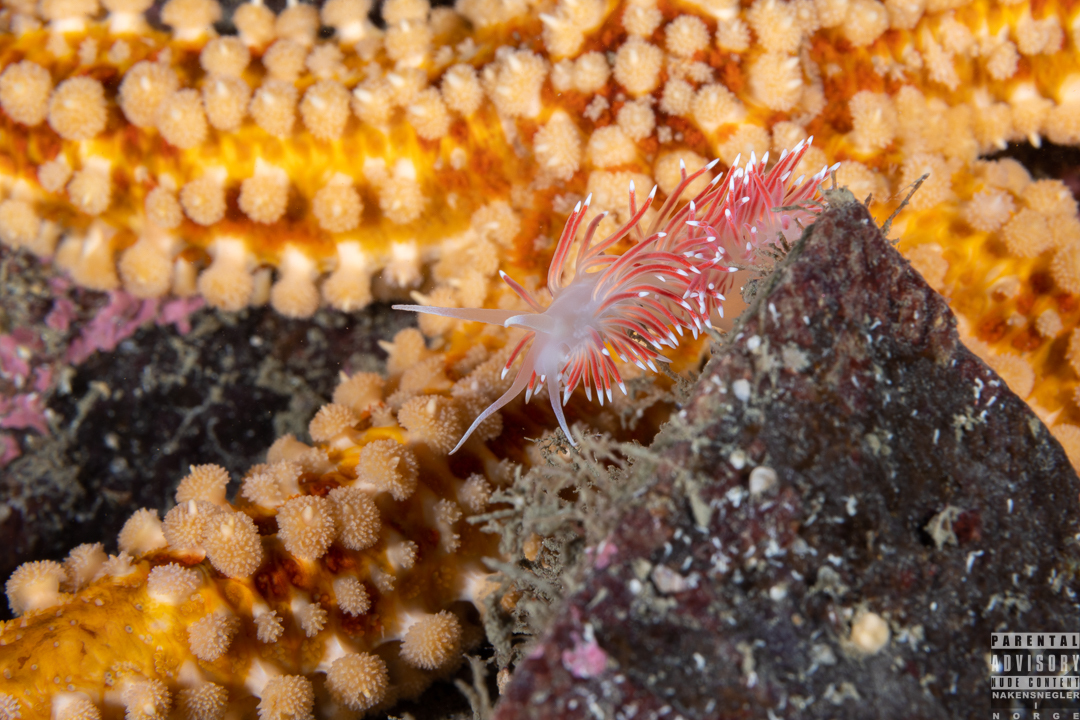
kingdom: Animalia
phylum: Mollusca
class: Gastropoda
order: Nudibranchia
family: Flabellinidae
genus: Carronella
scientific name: Carronella pellucida
